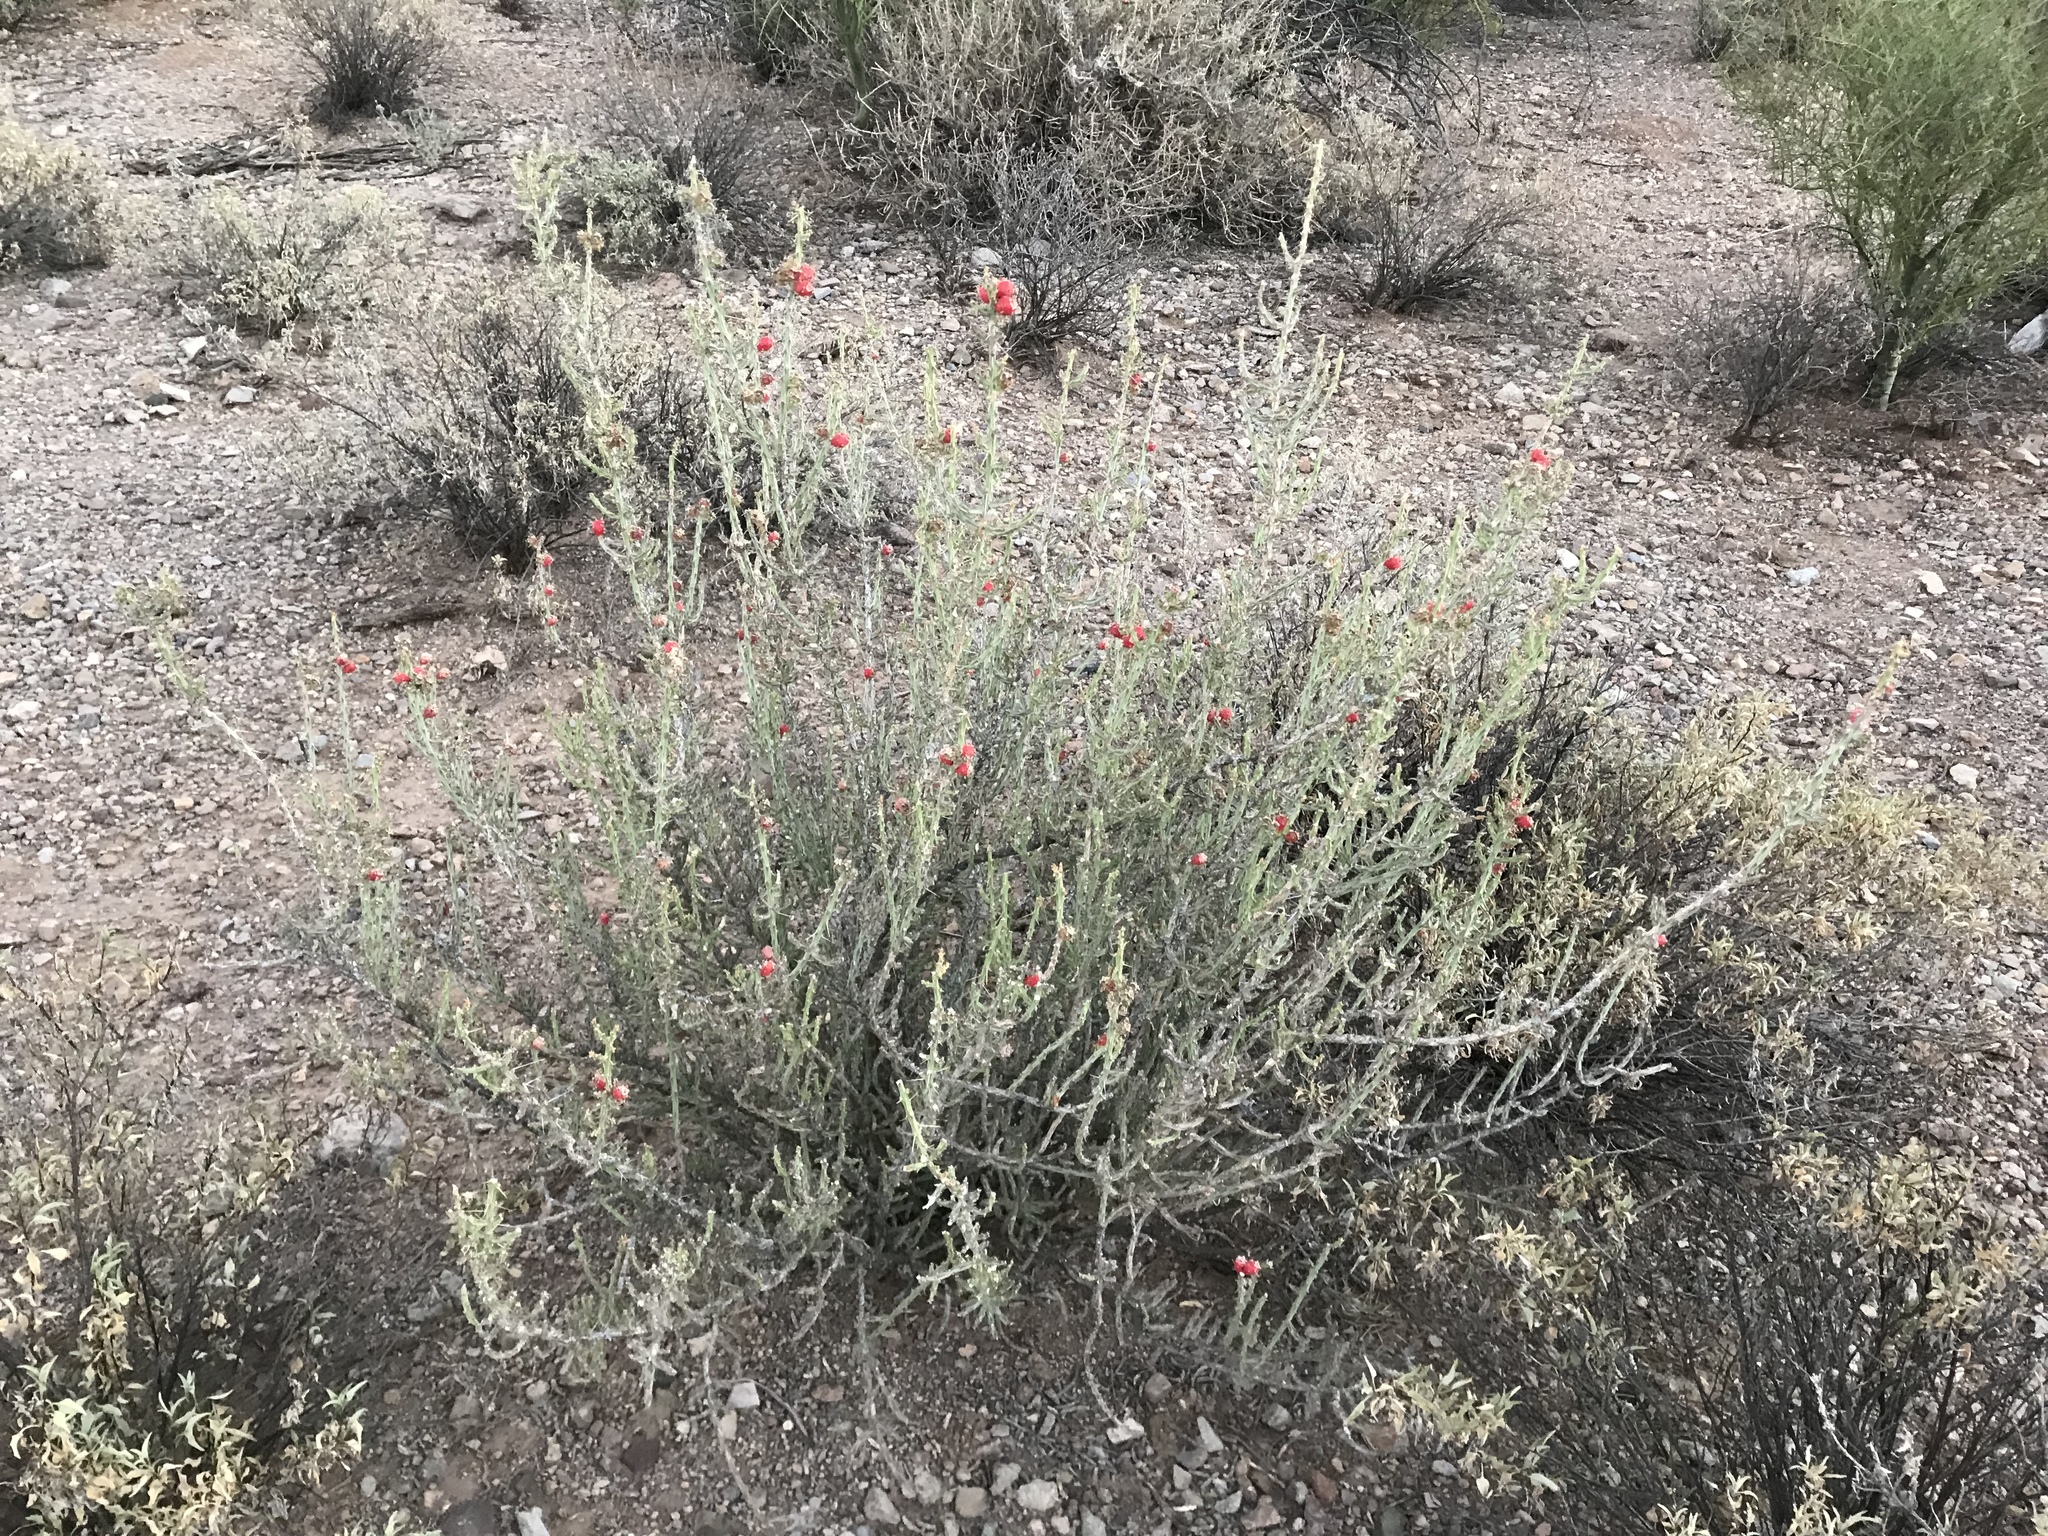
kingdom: Plantae
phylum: Tracheophyta
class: Magnoliopsida
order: Caryophyllales
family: Cactaceae
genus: Cylindropuntia
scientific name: Cylindropuntia leptocaulis
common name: Christmas cactus
